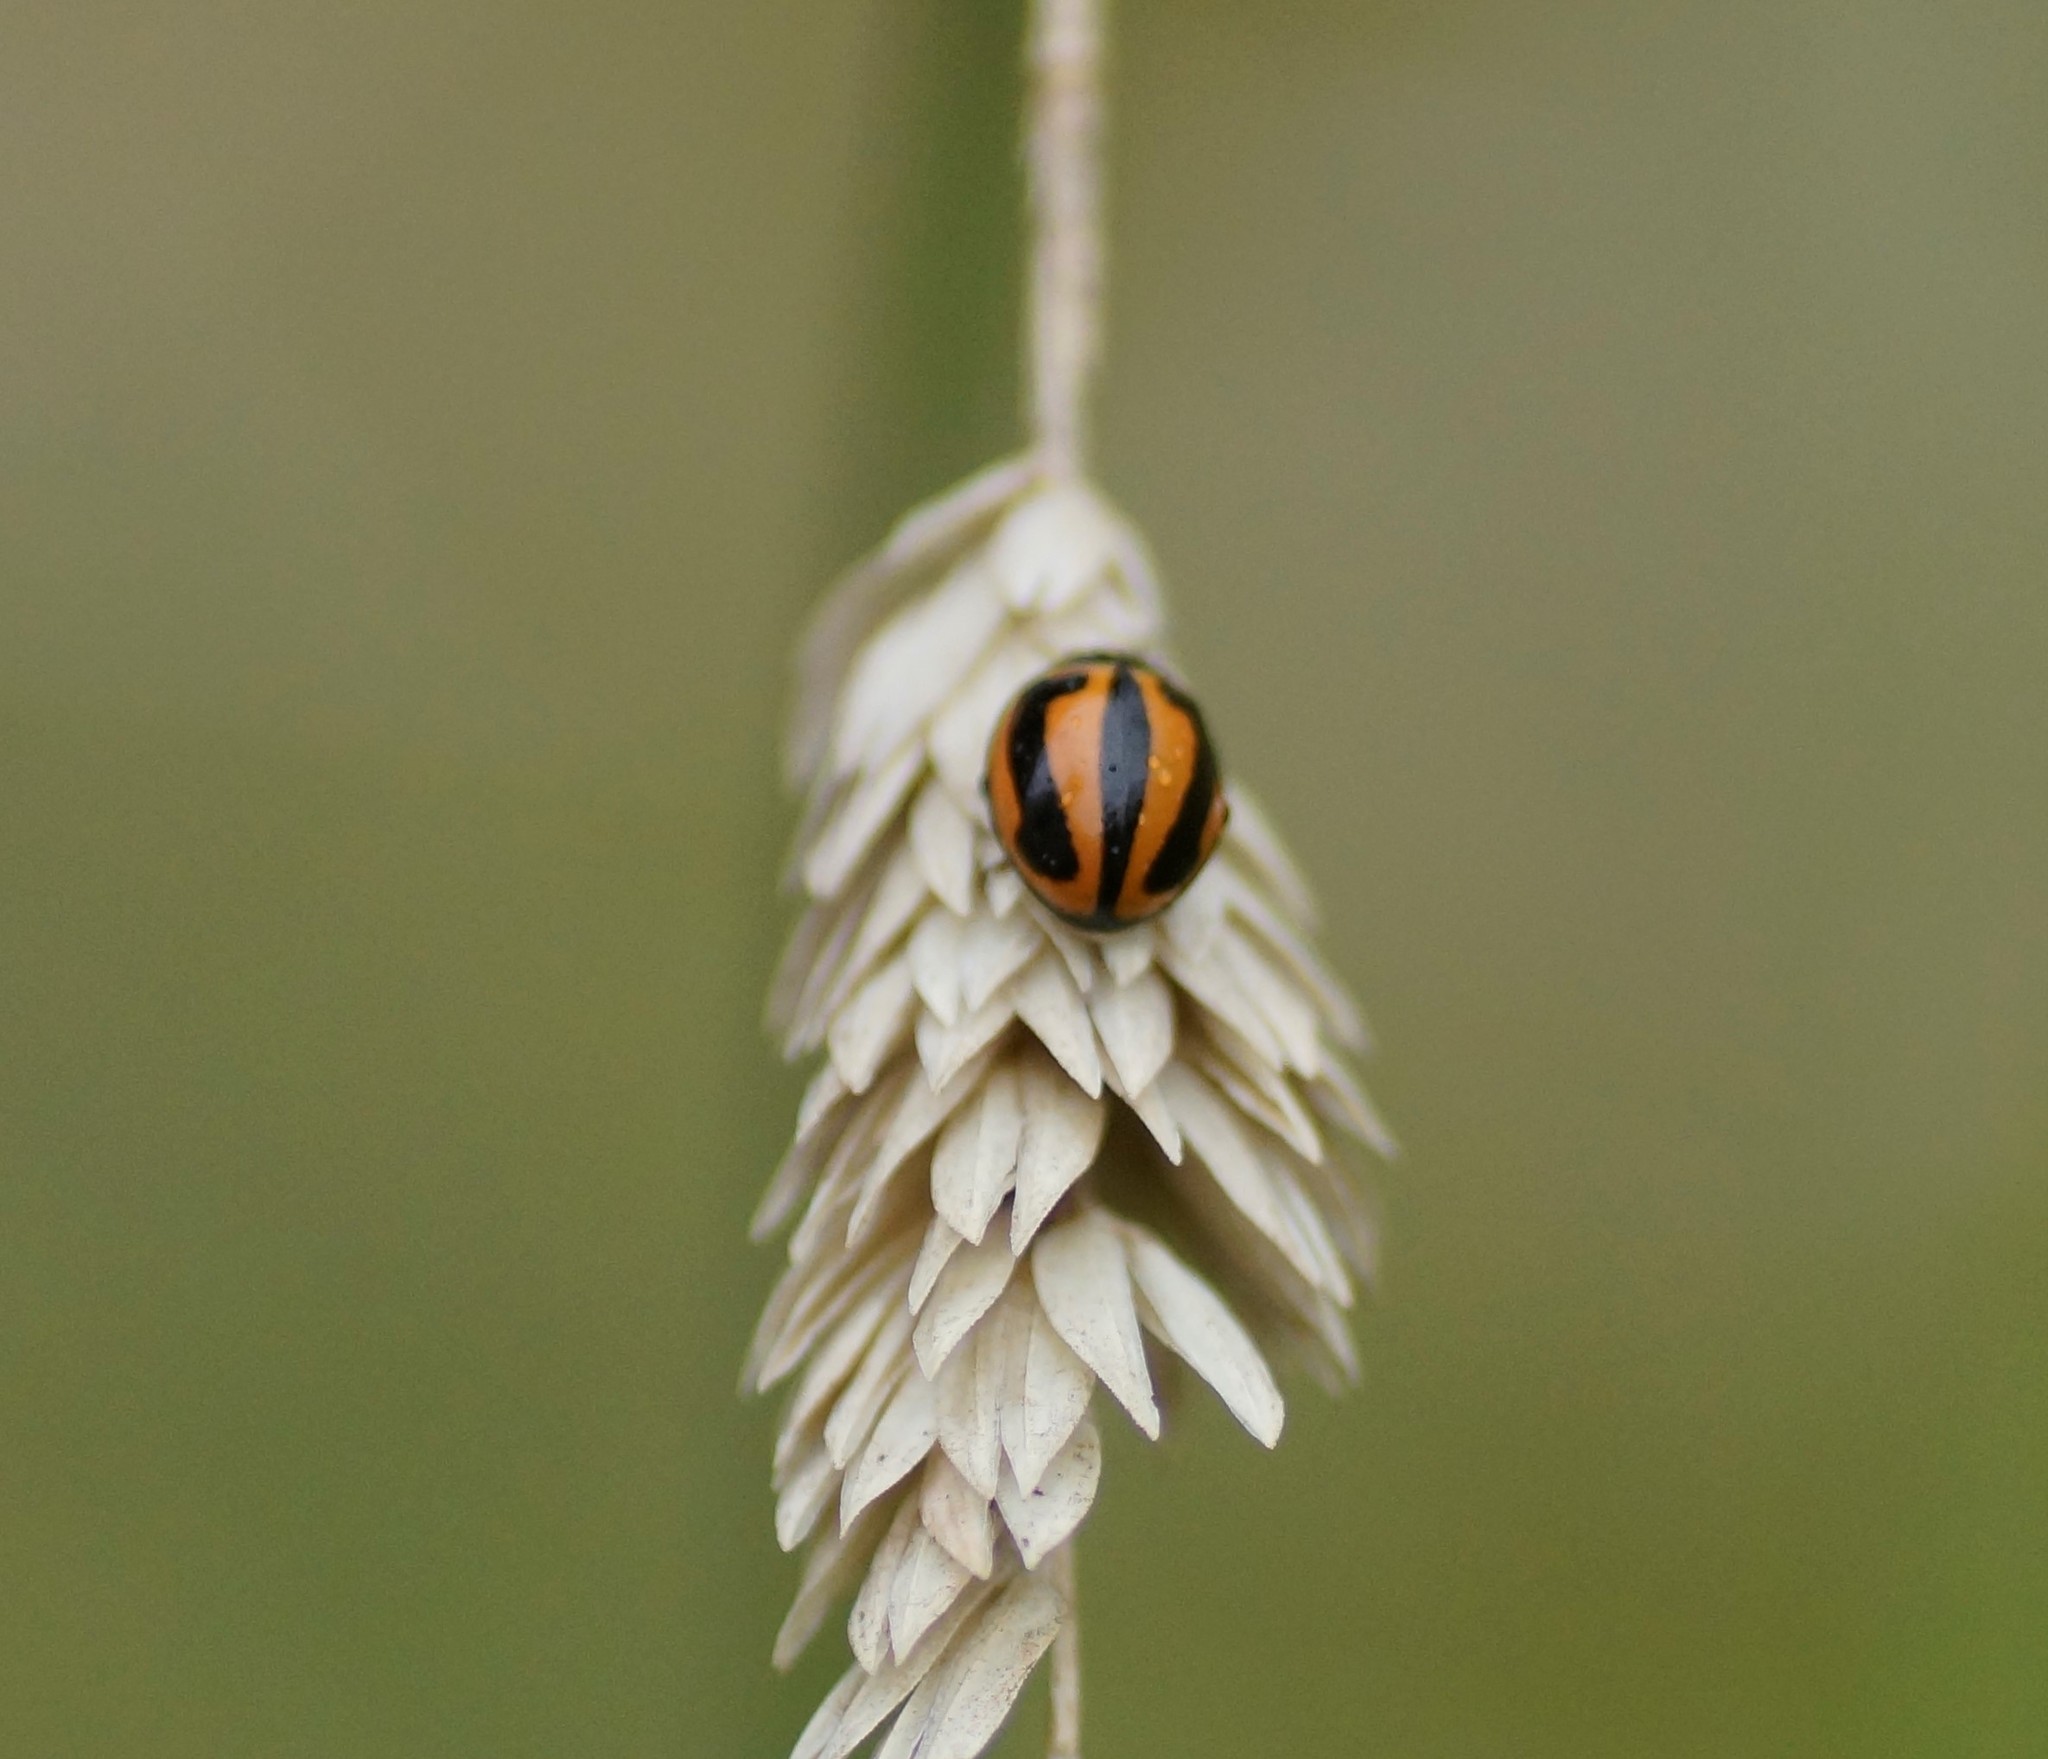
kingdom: Animalia
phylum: Arthropoda
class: Insecta
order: Coleoptera
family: Coccinellidae
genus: Micraspis
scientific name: Micraspis frenata
